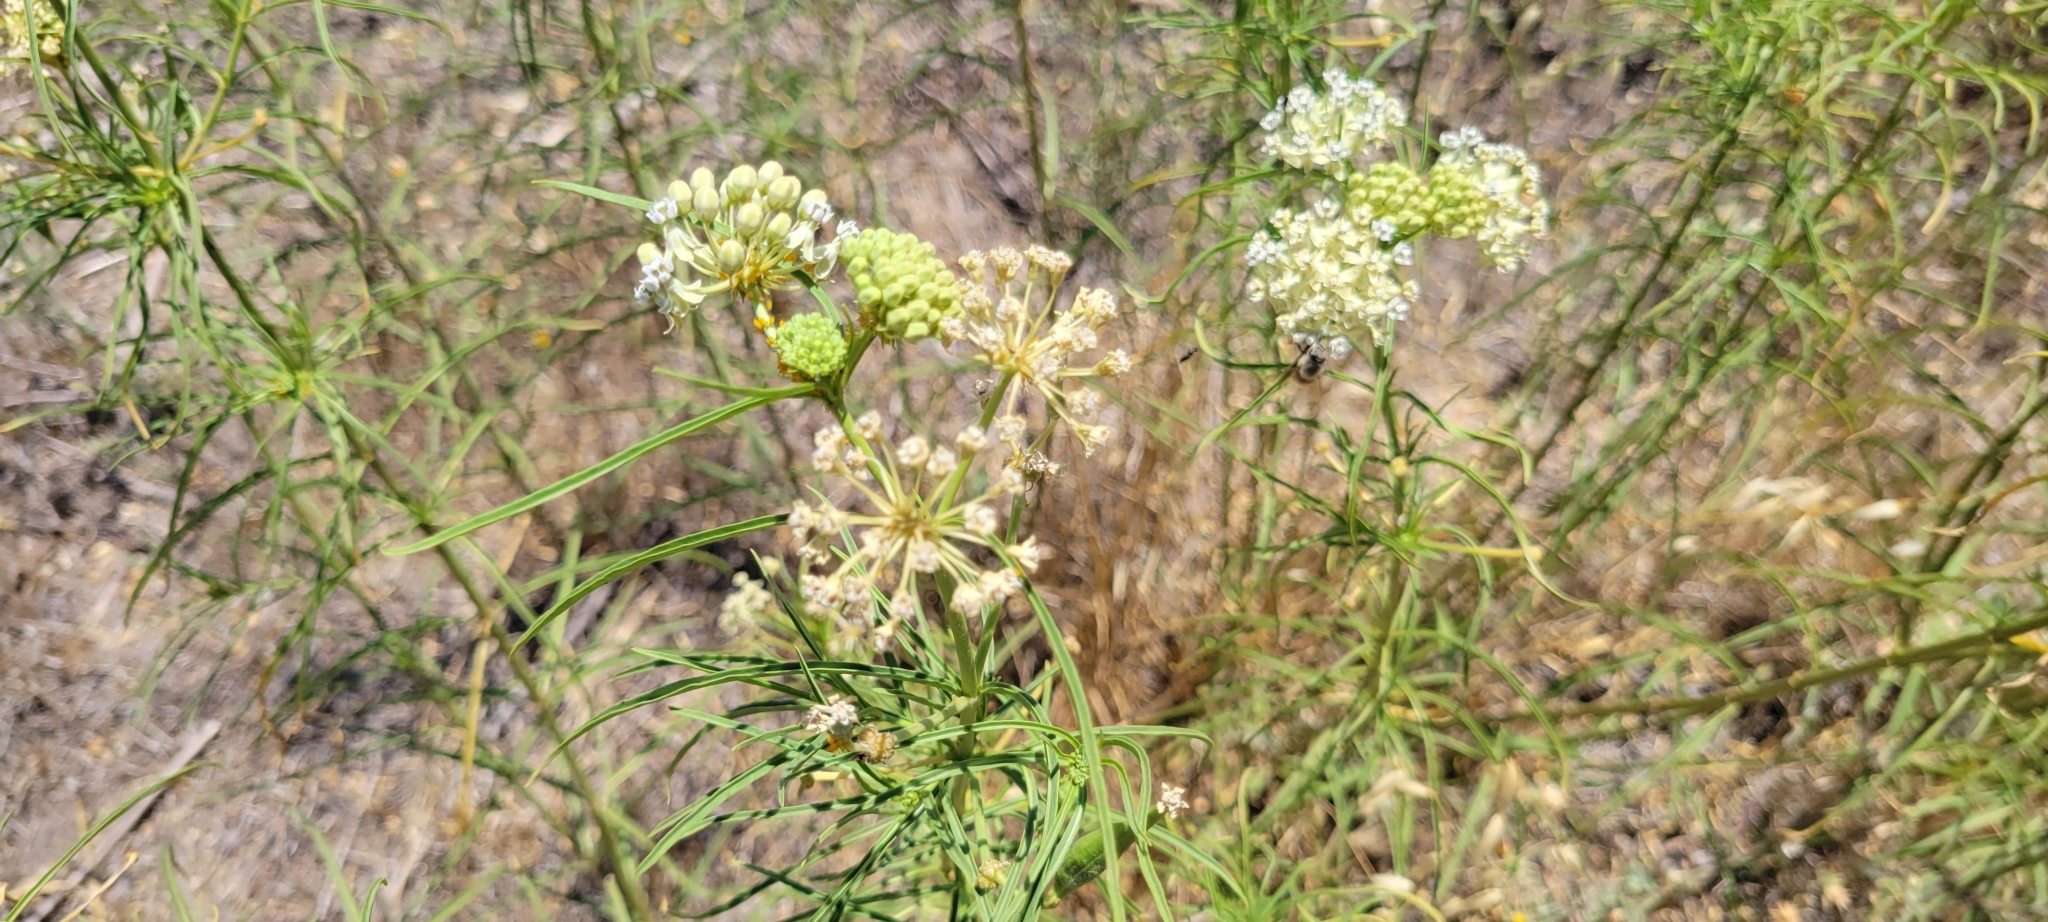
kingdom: Plantae
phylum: Tracheophyta
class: Magnoliopsida
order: Gentianales
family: Apocynaceae
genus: Asclepias
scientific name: Asclepias fascicularis
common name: Mexican milkweed
